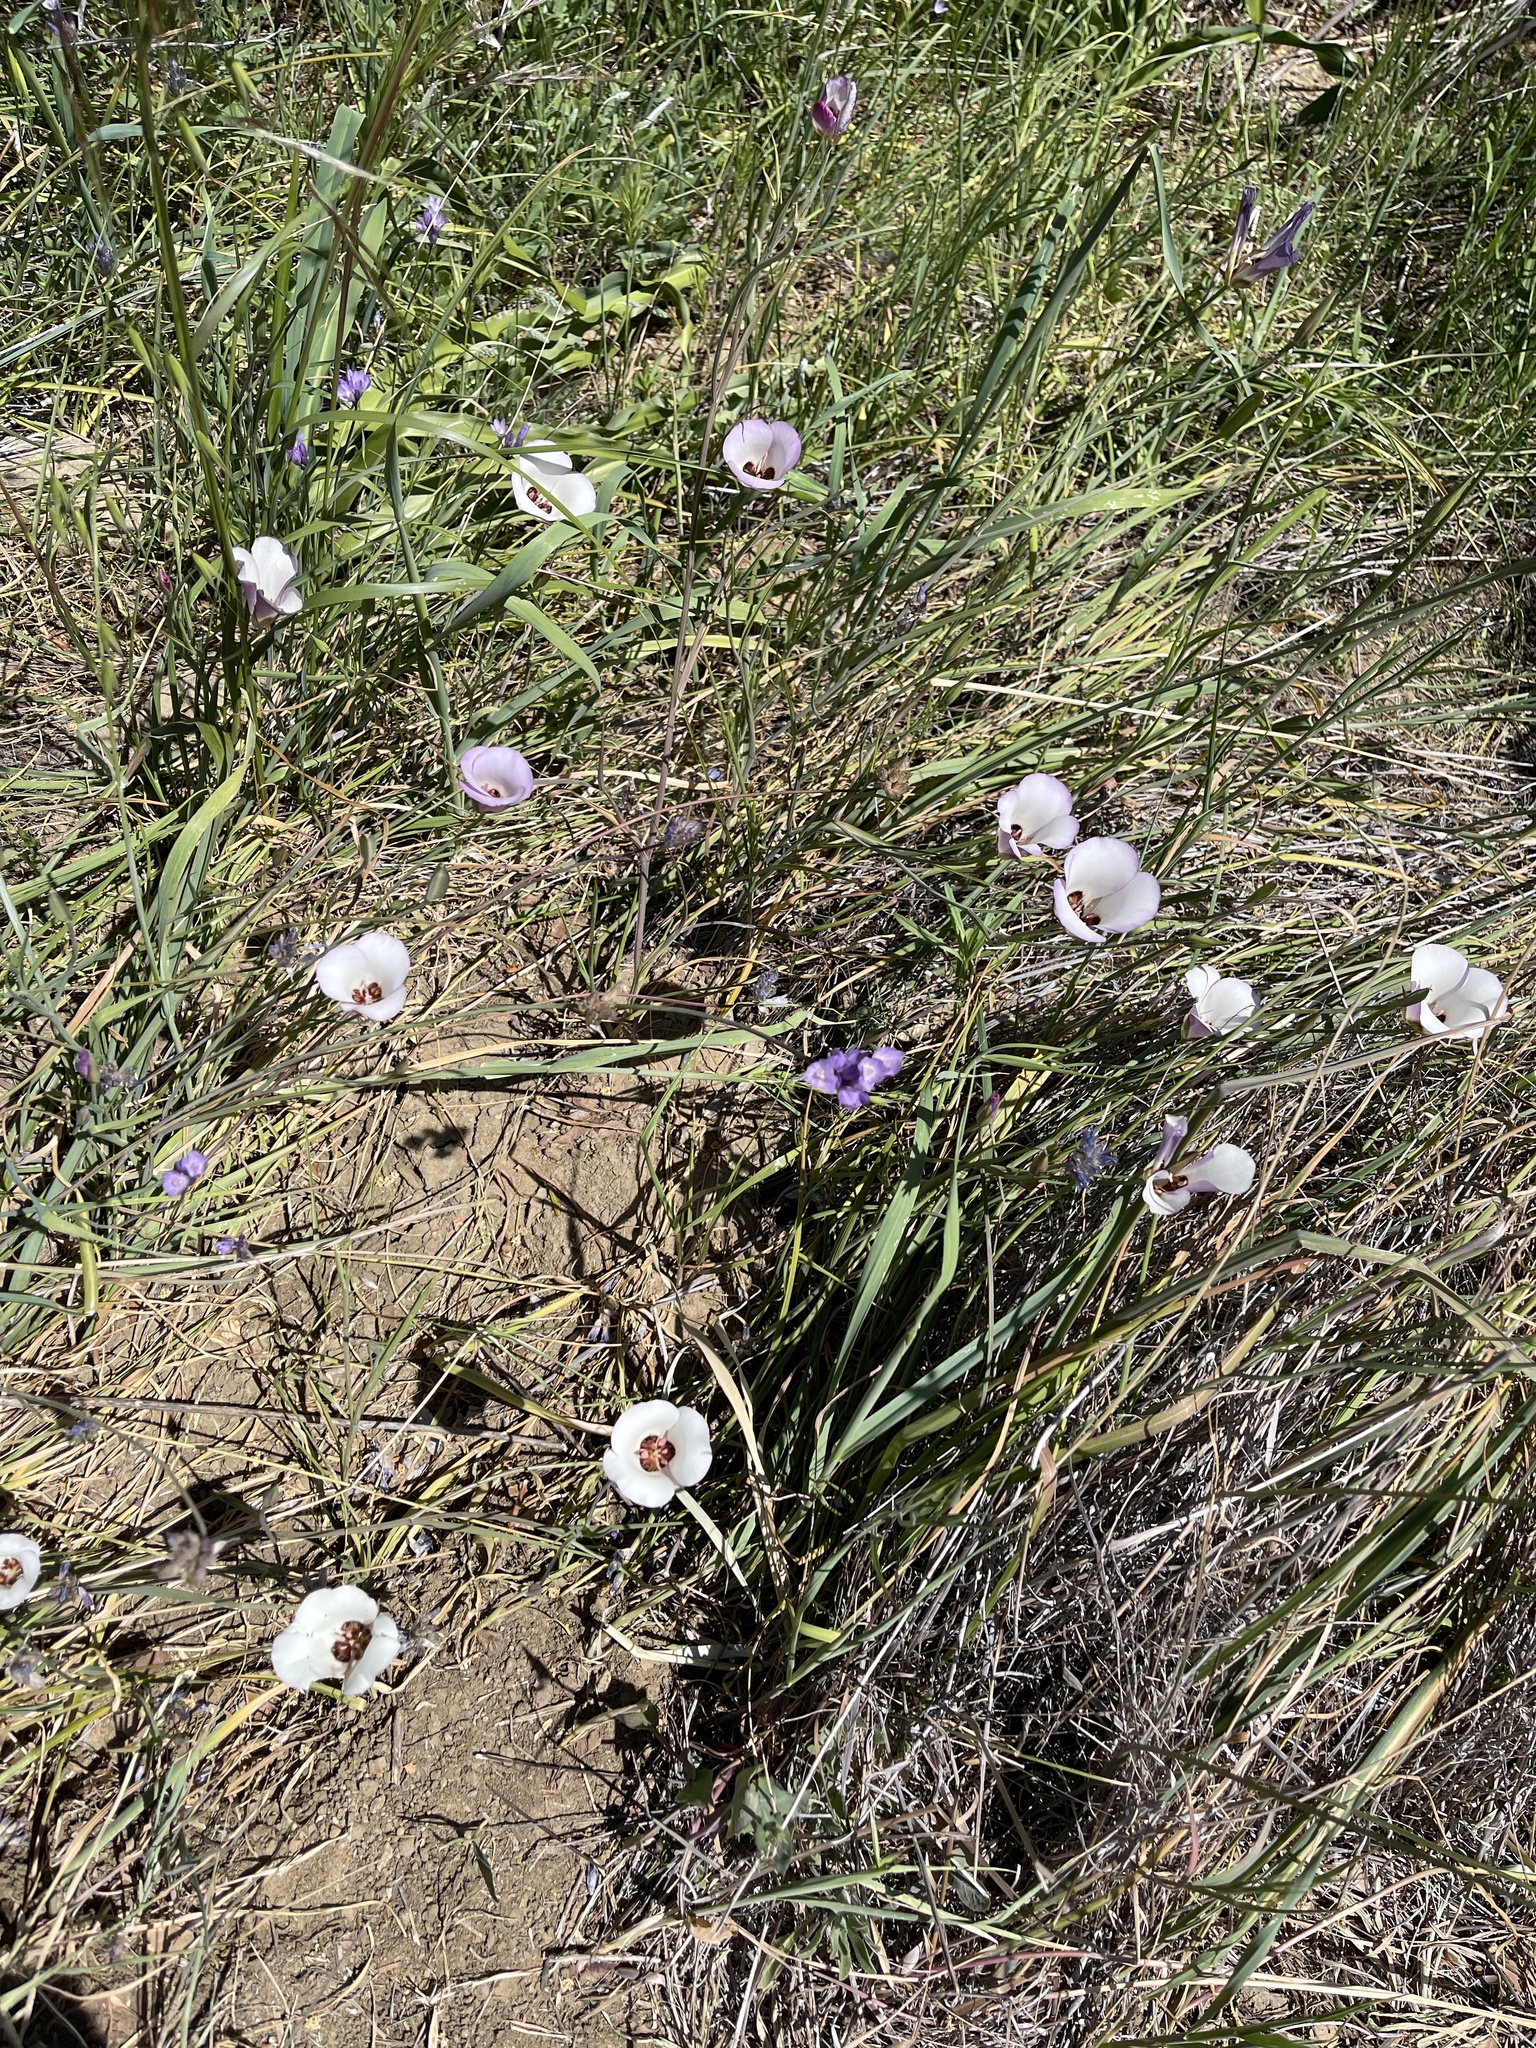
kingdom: Plantae
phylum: Tracheophyta
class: Liliopsida
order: Liliales
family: Liliaceae
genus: Calochortus
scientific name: Calochortus catalinae
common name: Catalina mariposa-lily
